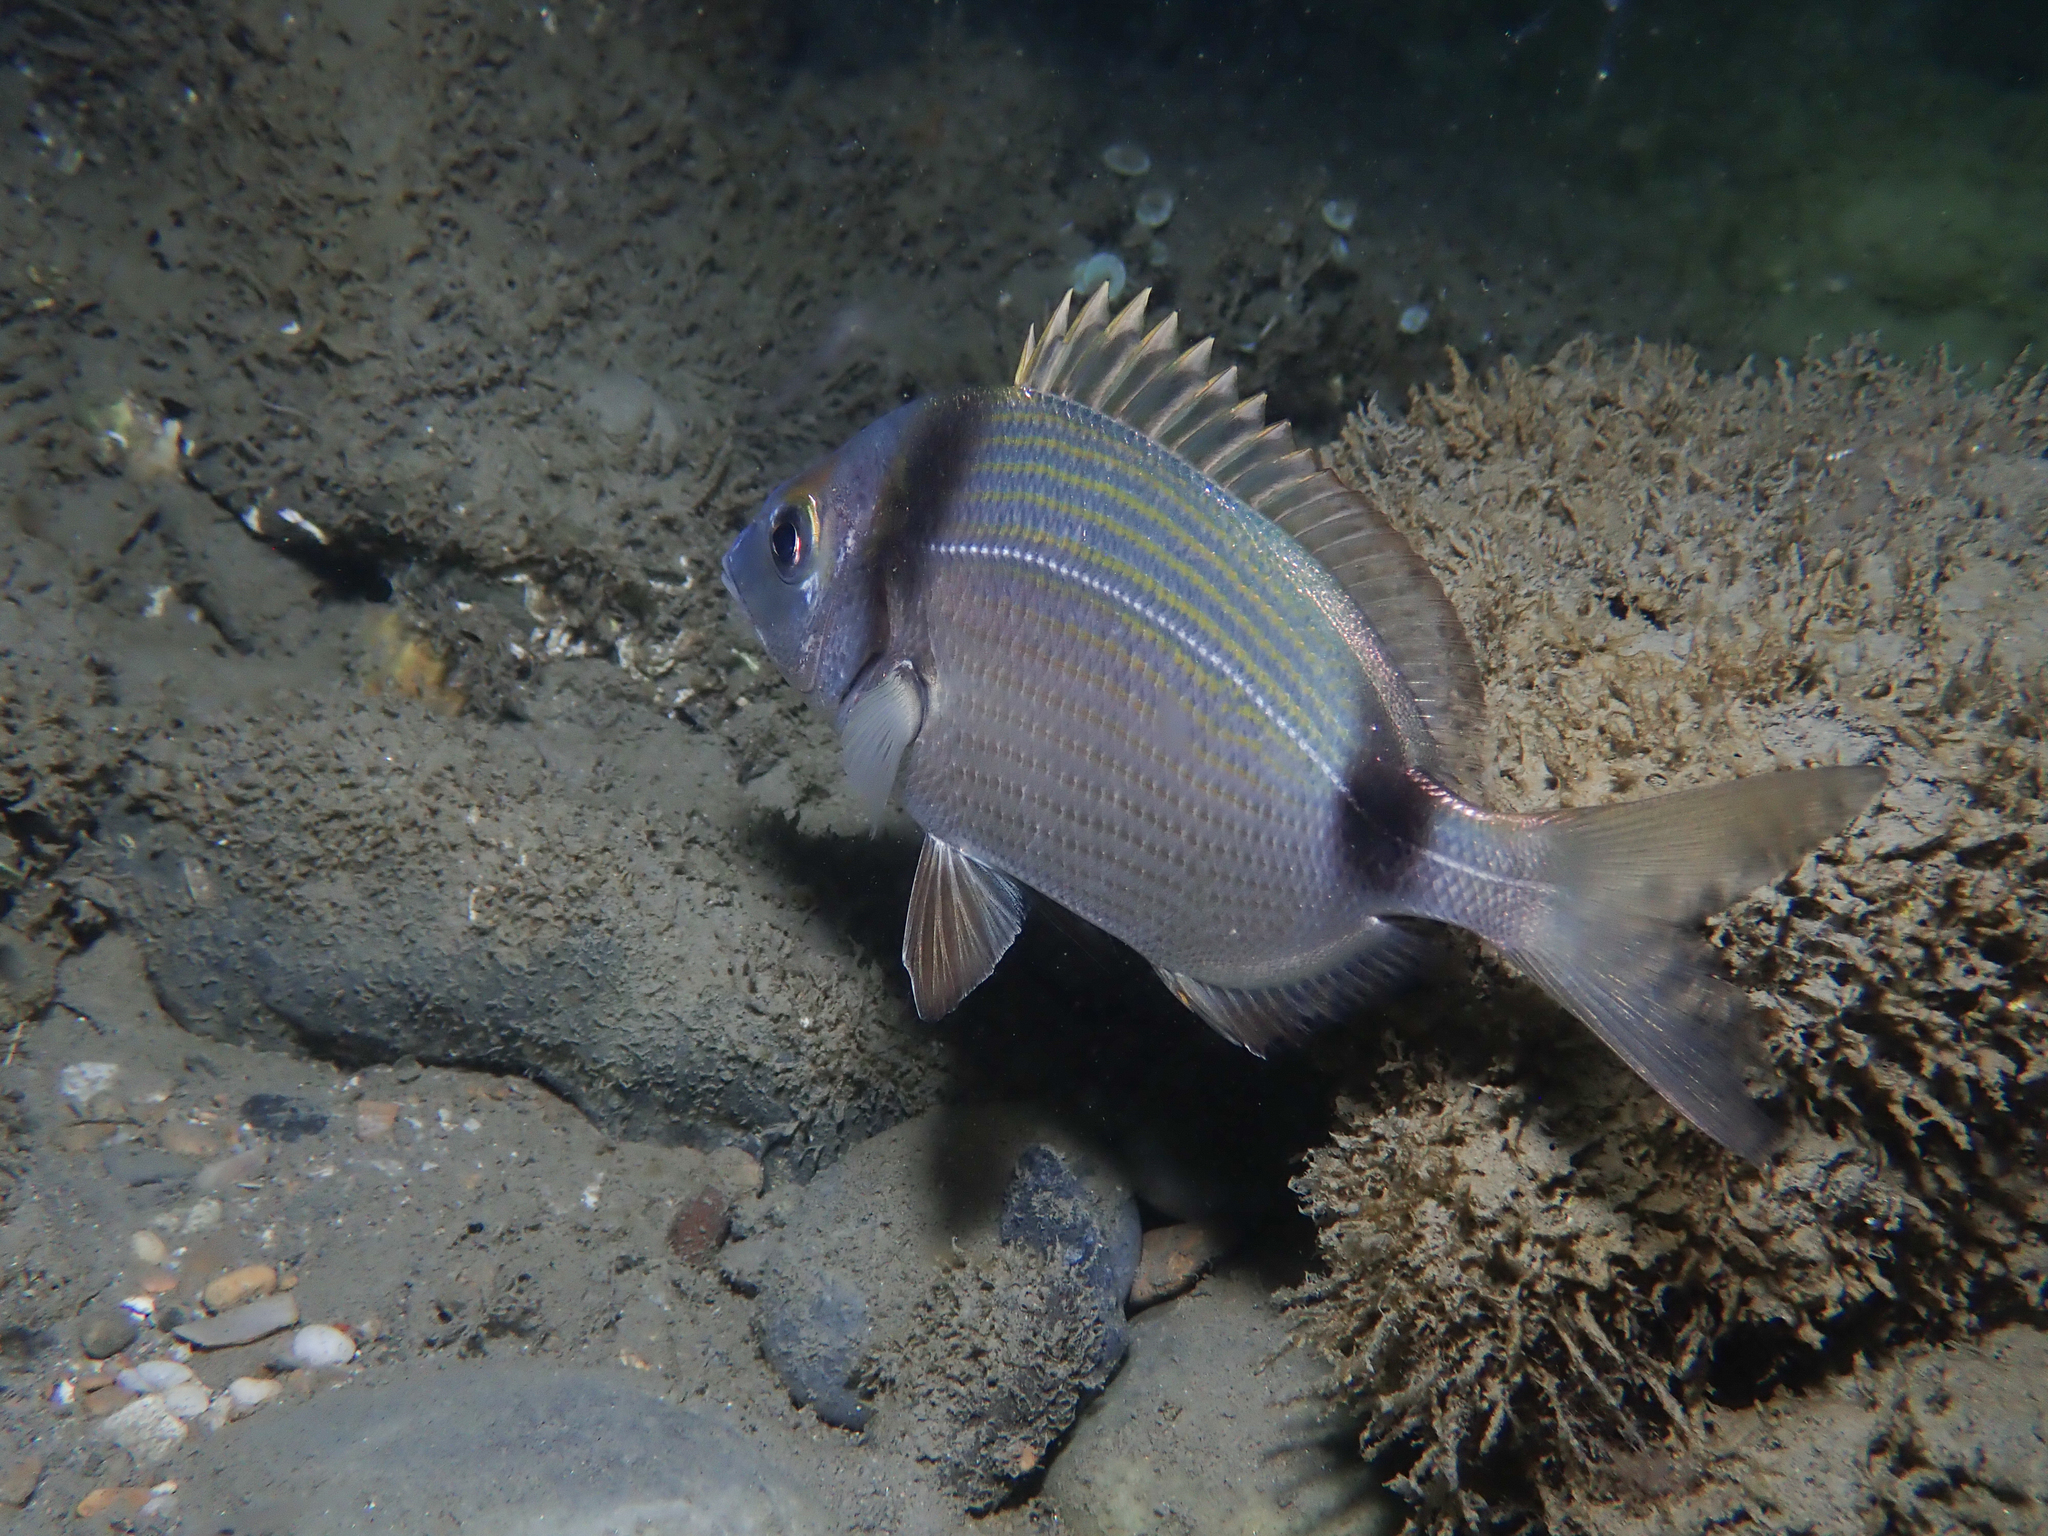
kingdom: Animalia
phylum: Chordata
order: Perciformes
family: Sparidae
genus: Diplodus
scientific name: Diplodus vulgaris
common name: Common two-banded seabream
